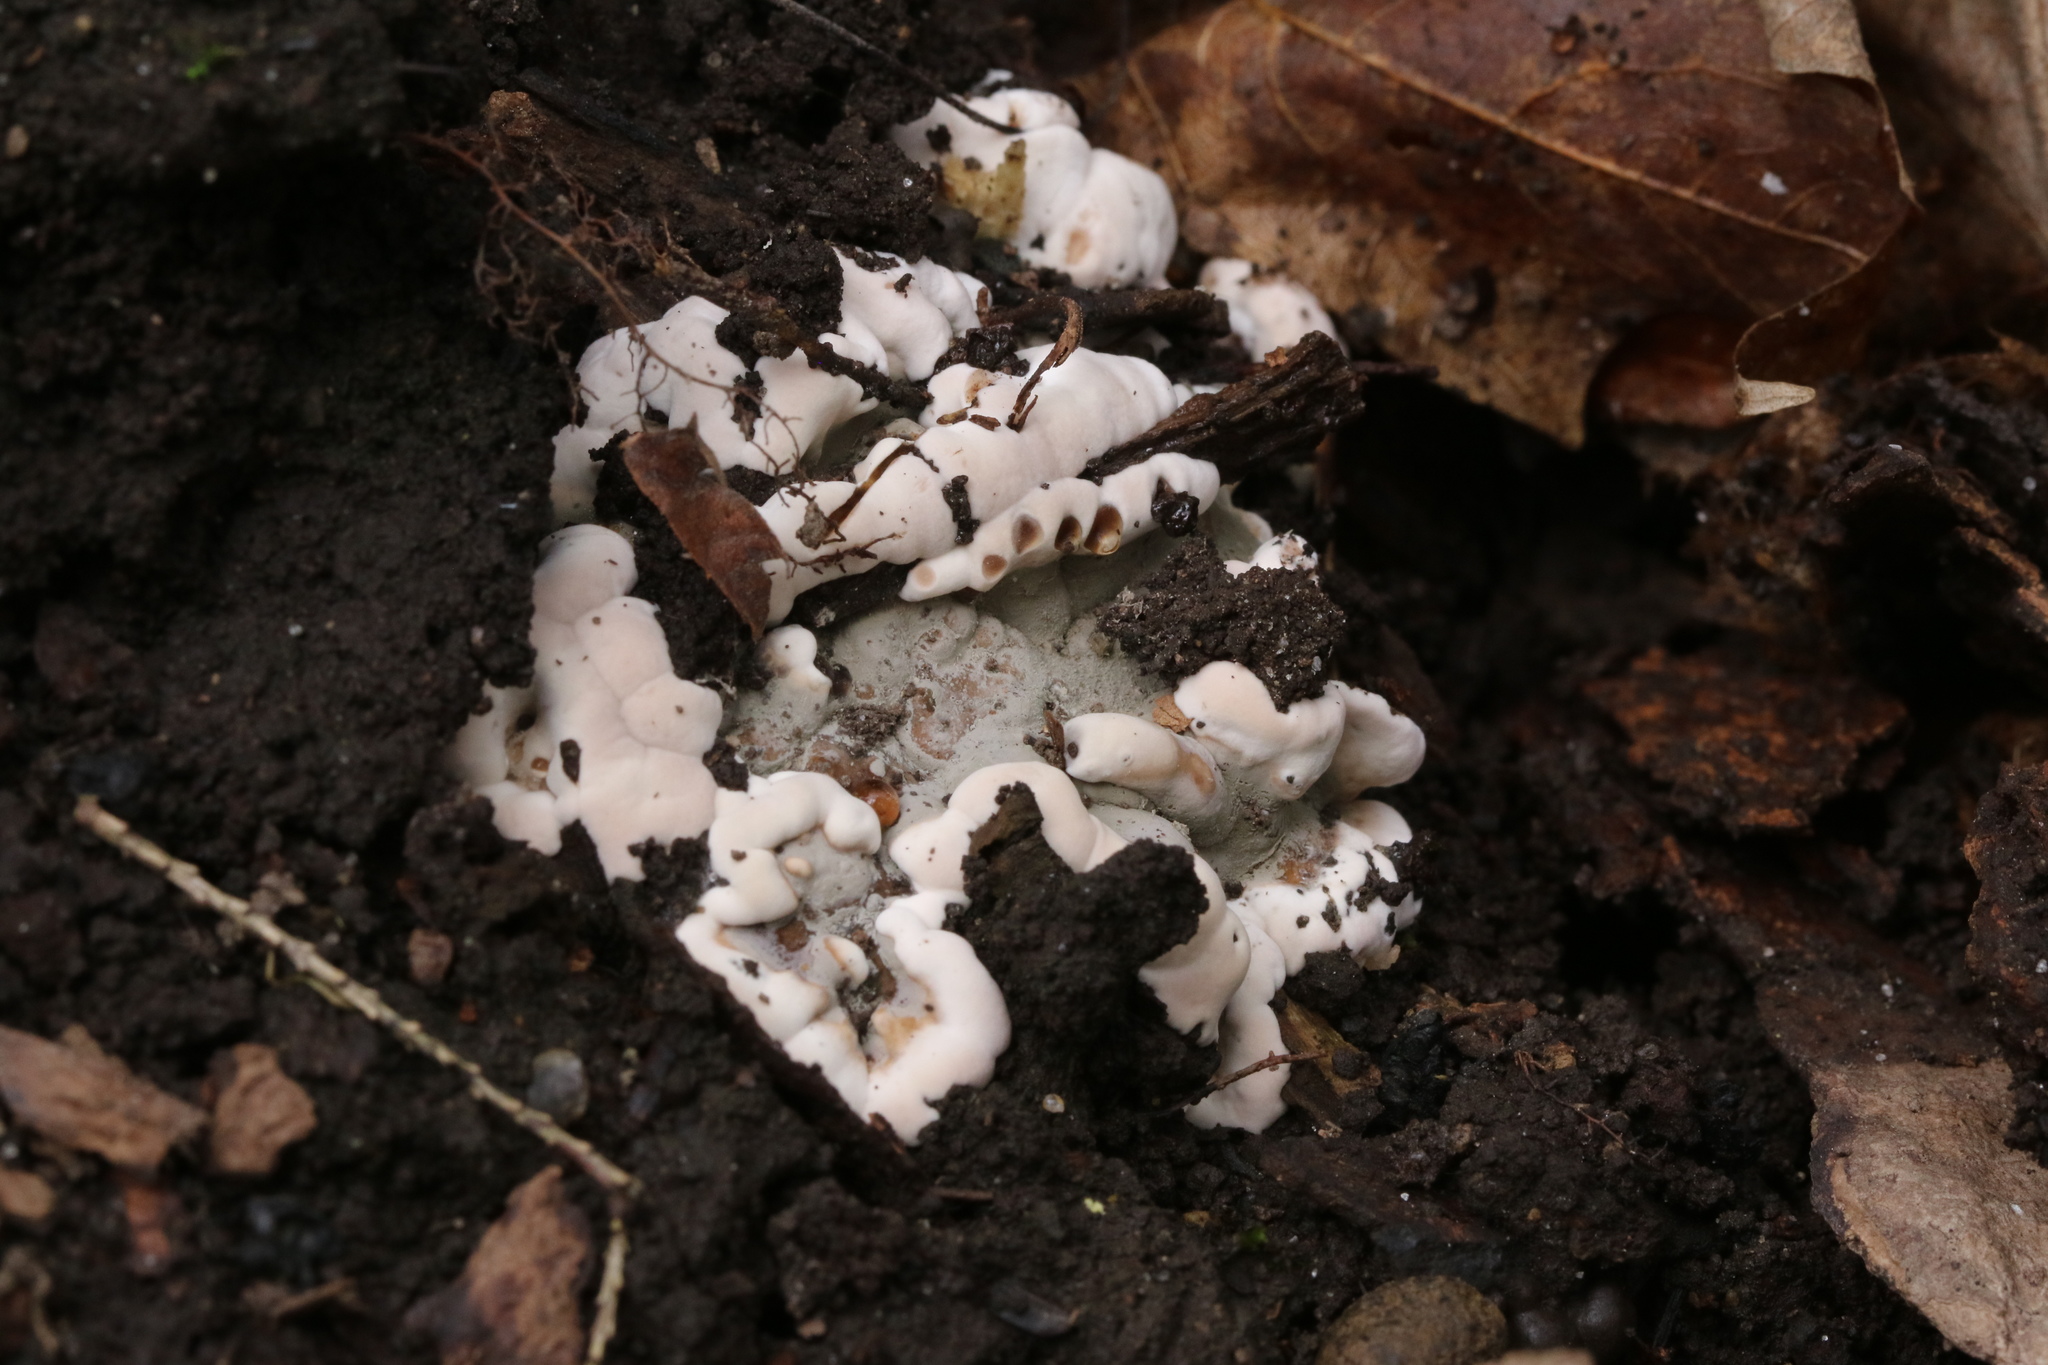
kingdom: Fungi
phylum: Ascomycota
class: Sordariomycetes
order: Xylariales
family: Xylariaceae
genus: Kretzschmaria
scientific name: Kretzschmaria deusta
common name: Brittle cinder
